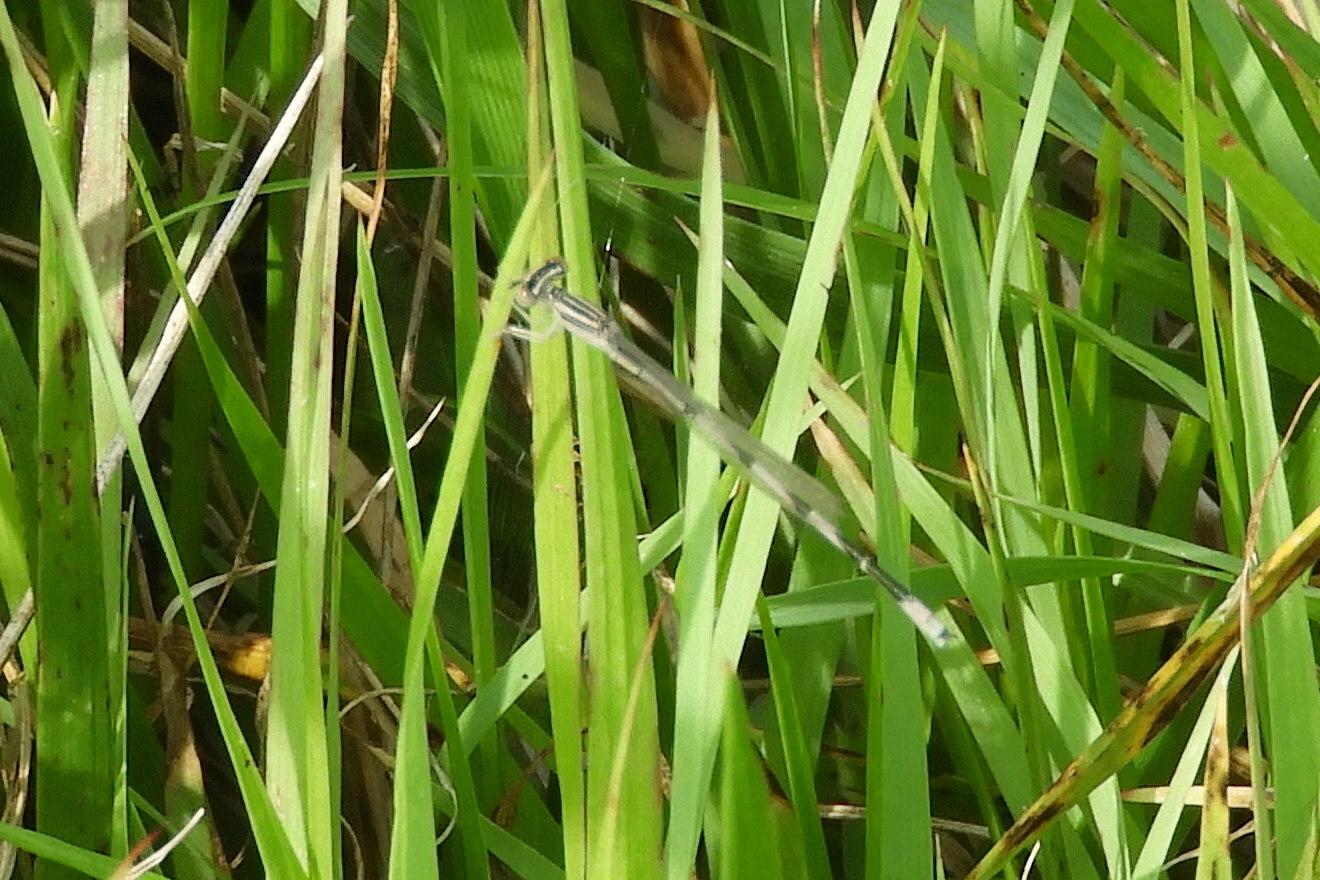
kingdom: Animalia
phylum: Arthropoda
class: Insecta
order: Odonata
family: Coenagrionidae
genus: Enallagma
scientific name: Enallagma basidens
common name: Double-striped bluet
